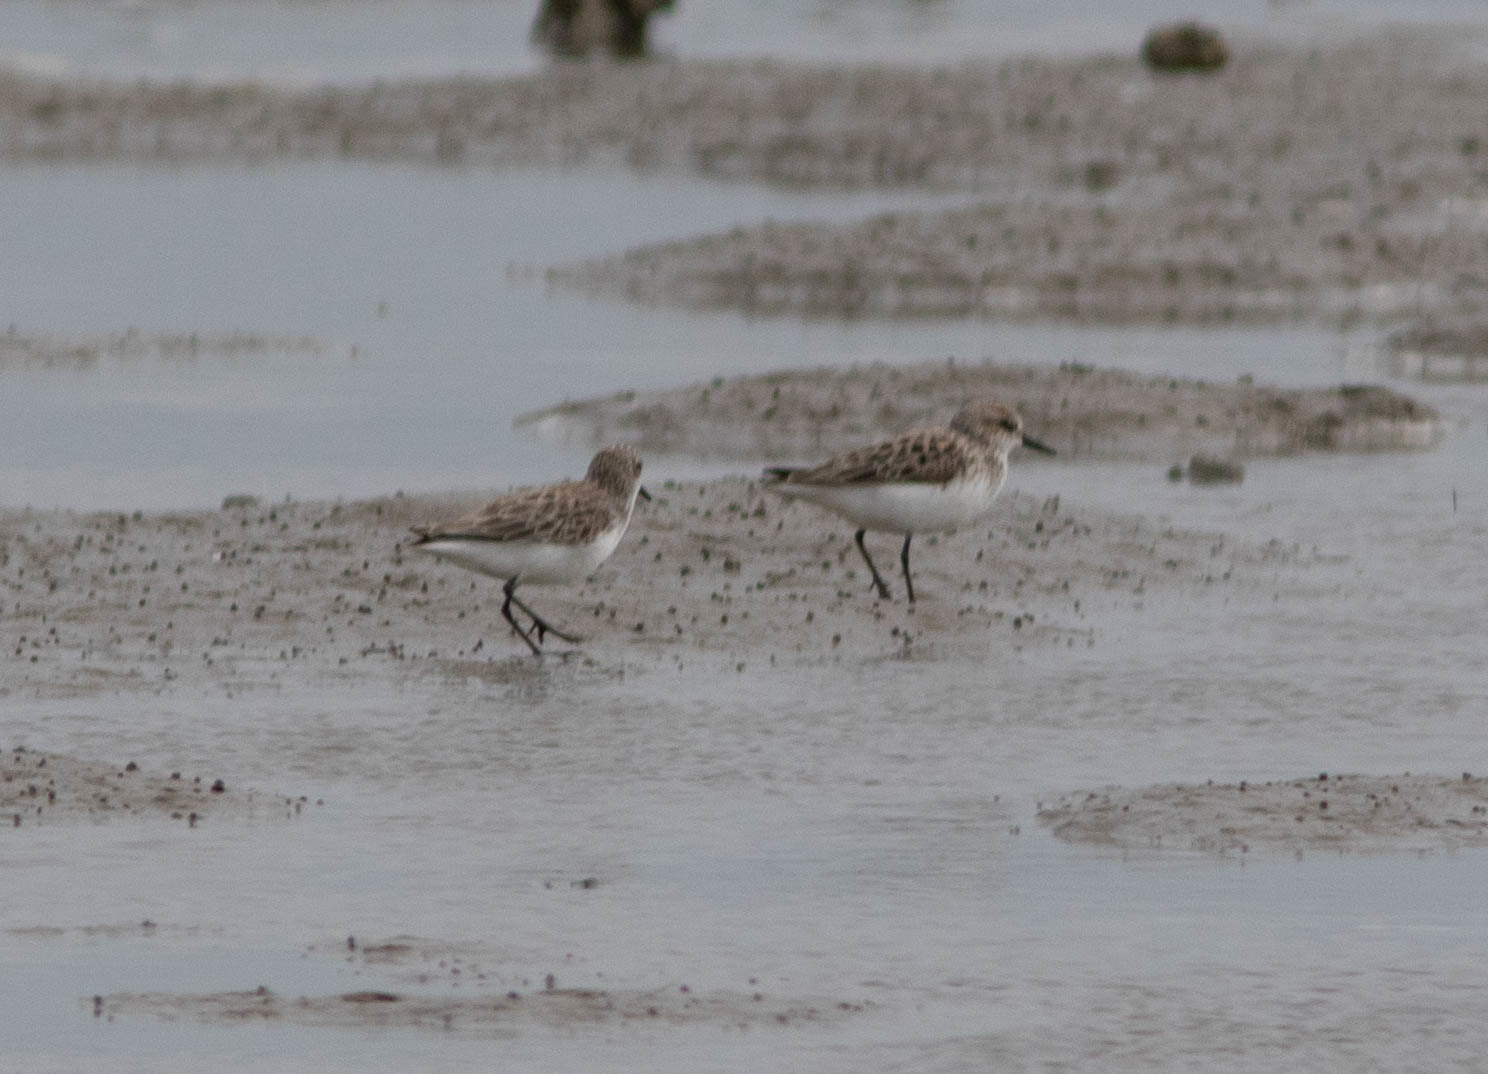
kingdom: Animalia
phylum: Chordata
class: Aves
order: Charadriiformes
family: Scolopacidae
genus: Calidris
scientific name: Calidris pusilla
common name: Semipalmated sandpiper
